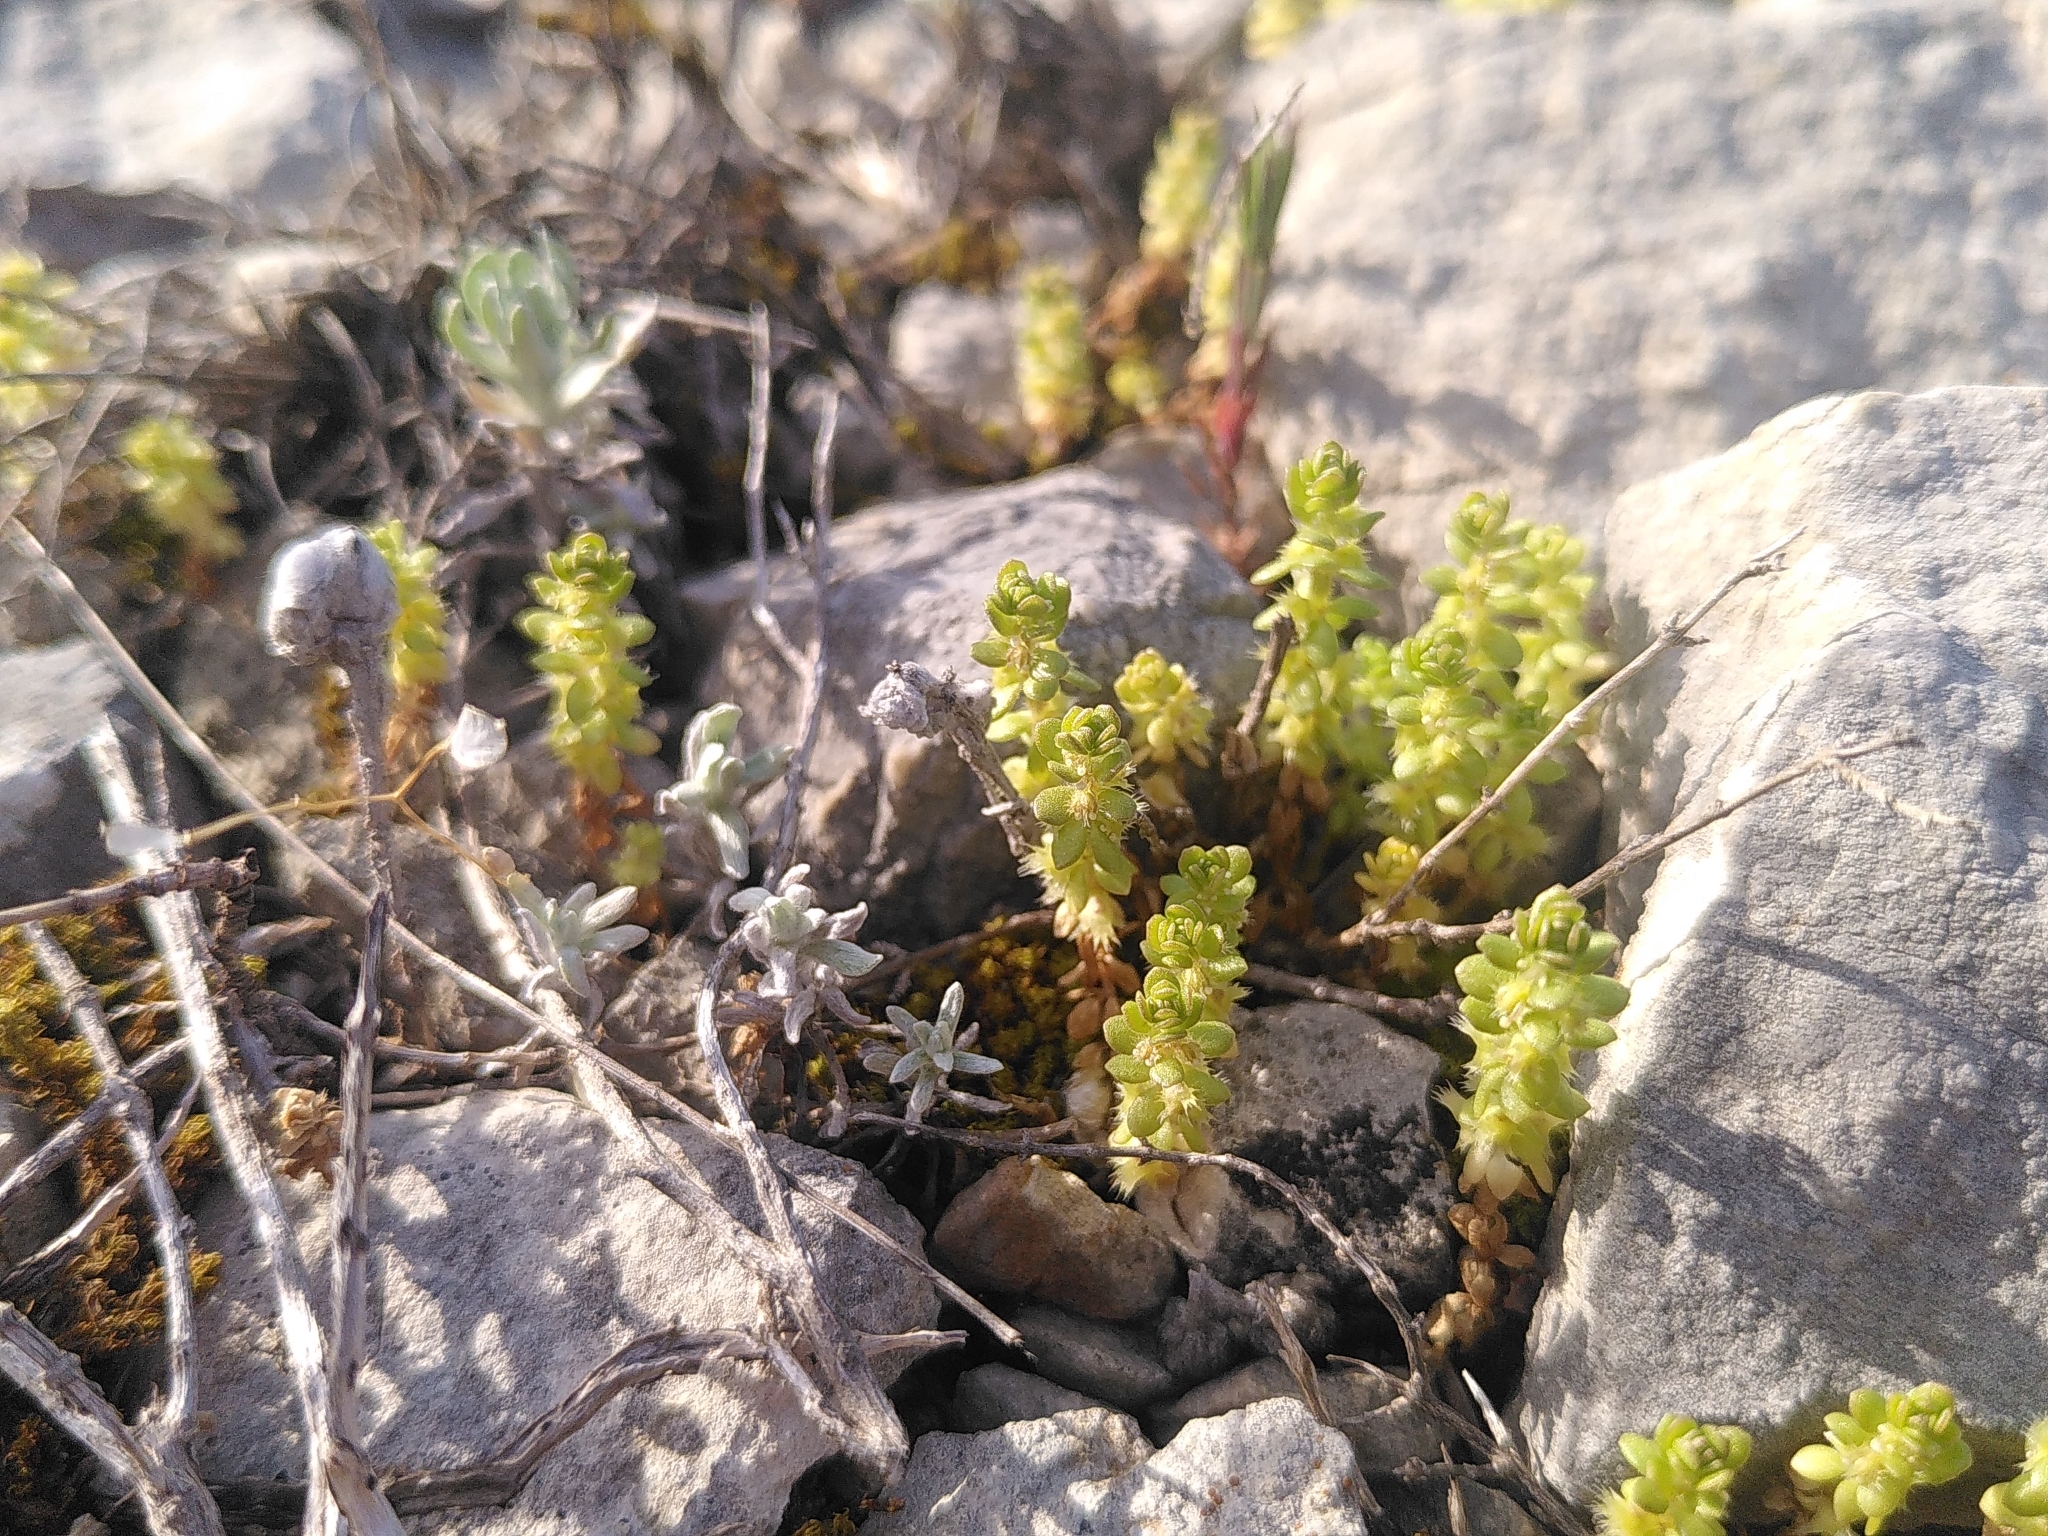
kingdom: Plantae
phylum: Tracheophyta
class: Magnoliopsida
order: Gentianales
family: Rubiaceae
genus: Valantia
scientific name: Valantia muralis
